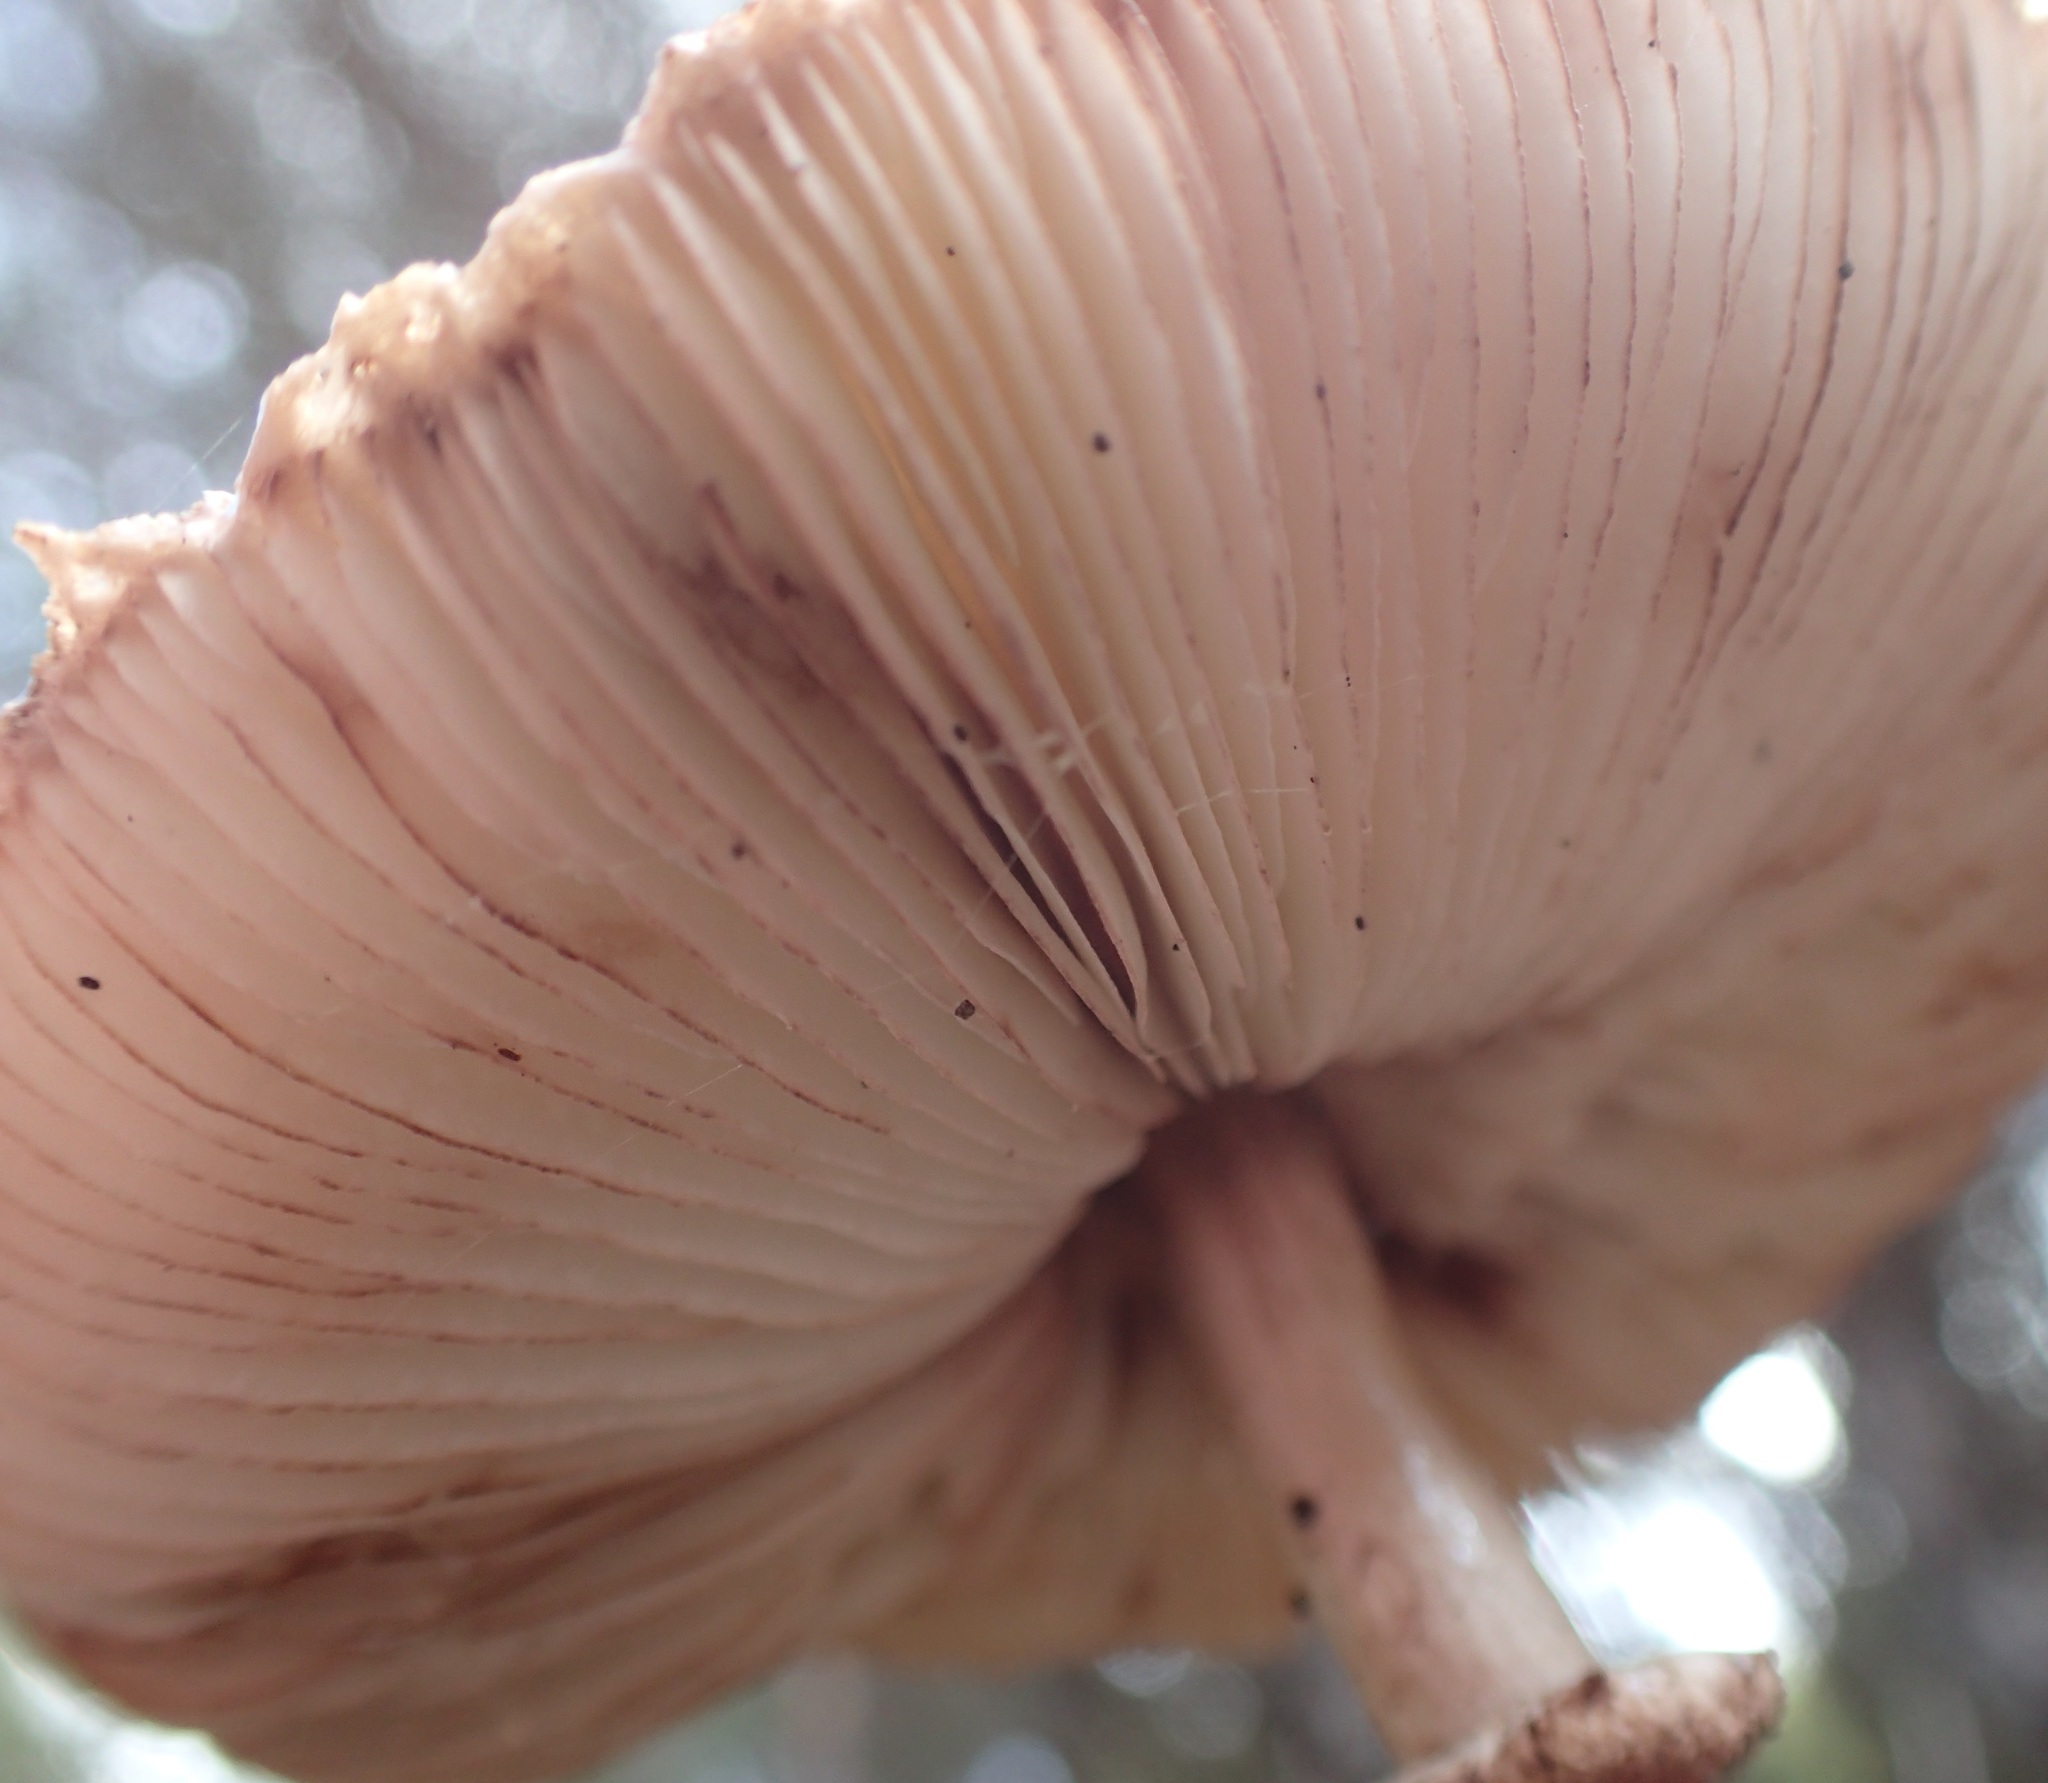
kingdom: Fungi
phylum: Basidiomycota
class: Agaricomycetes
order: Agaricales
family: Agaricaceae
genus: Macrolepiota
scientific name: Macrolepiota clelandii
